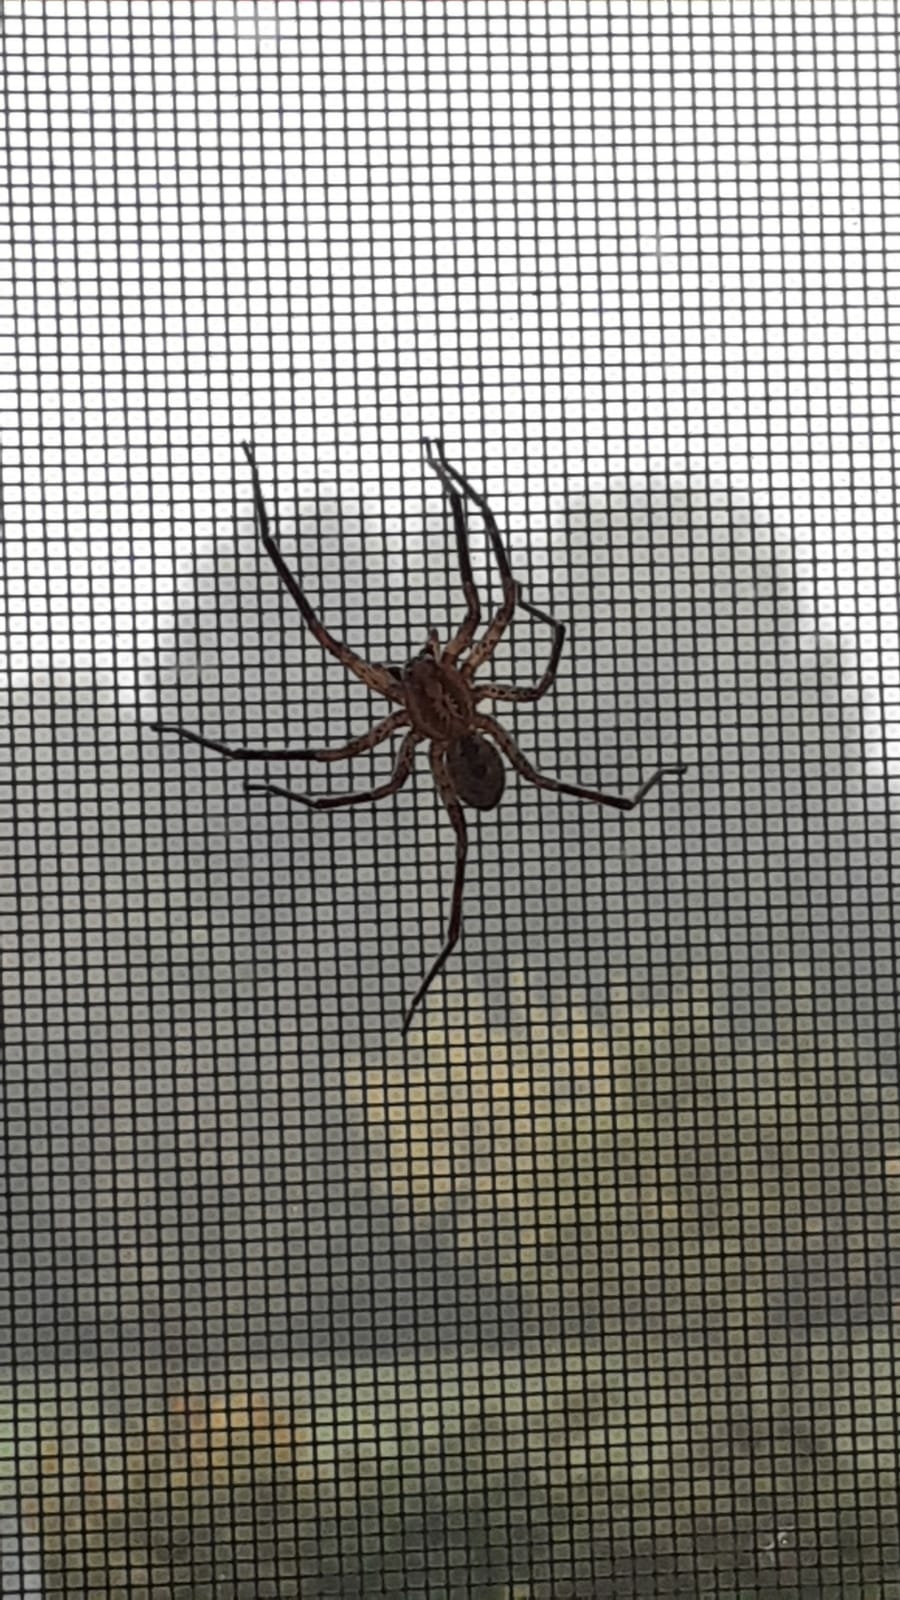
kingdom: Animalia
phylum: Arthropoda
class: Arachnida
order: Araneae
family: Zoropsidae
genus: Zoropsis
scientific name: Zoropsis spinimana
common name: Zoropsid spider
